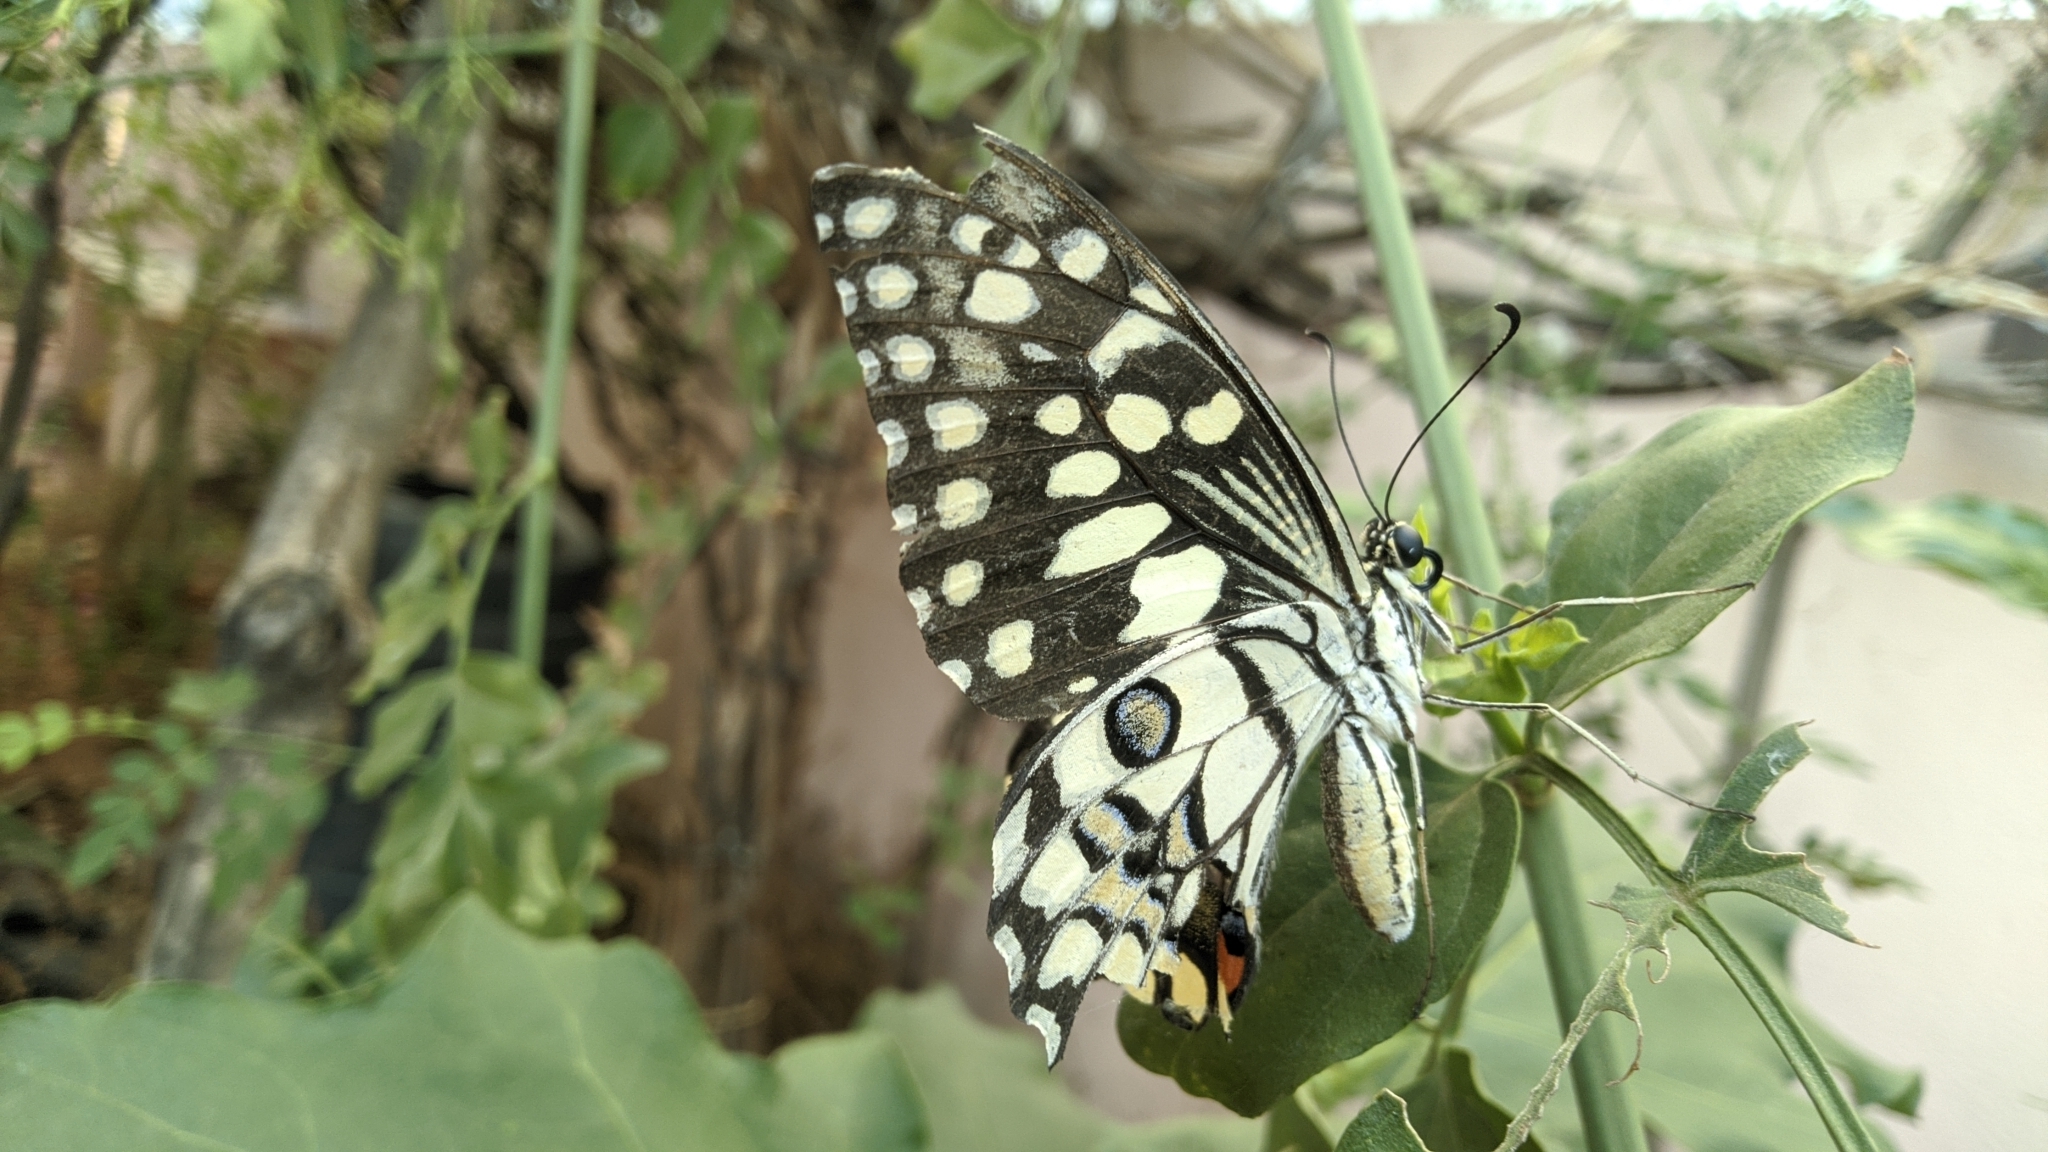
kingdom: Animalia
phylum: Arthropoda
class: Insecta
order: Lepidoptera
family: Papilionidae
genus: Papilio
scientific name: Papilio demoleus
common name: Lime butterfly
